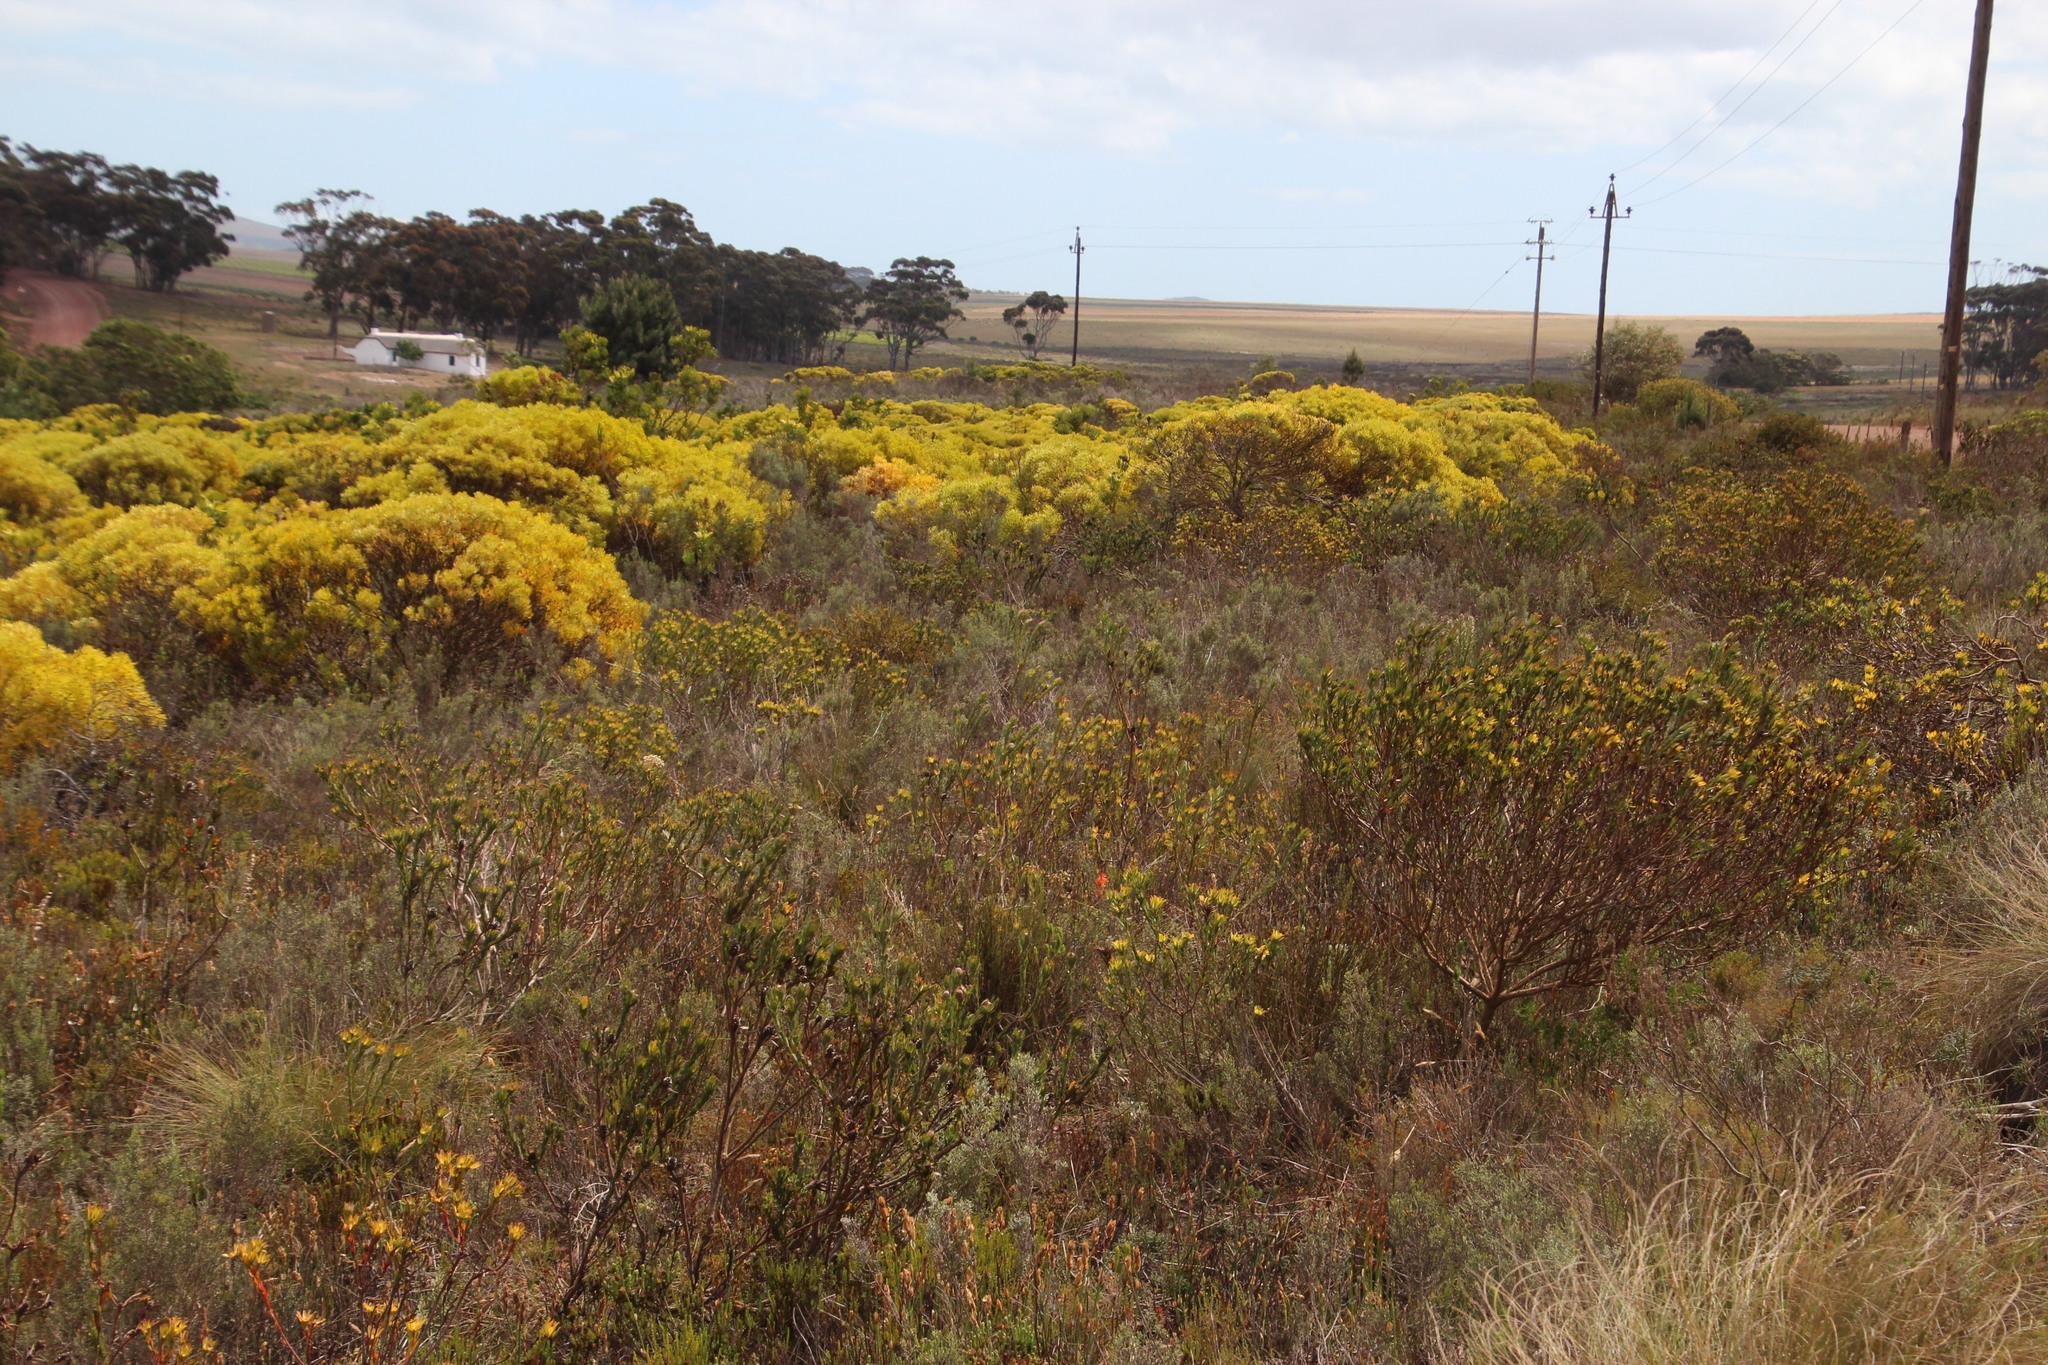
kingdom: Plantae
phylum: Tracheophyta
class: Magnoliopsida
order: Proteales
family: Proteaceae
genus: Leucadendron
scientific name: Leucadendron stelligerum
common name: Agulhas conebush
